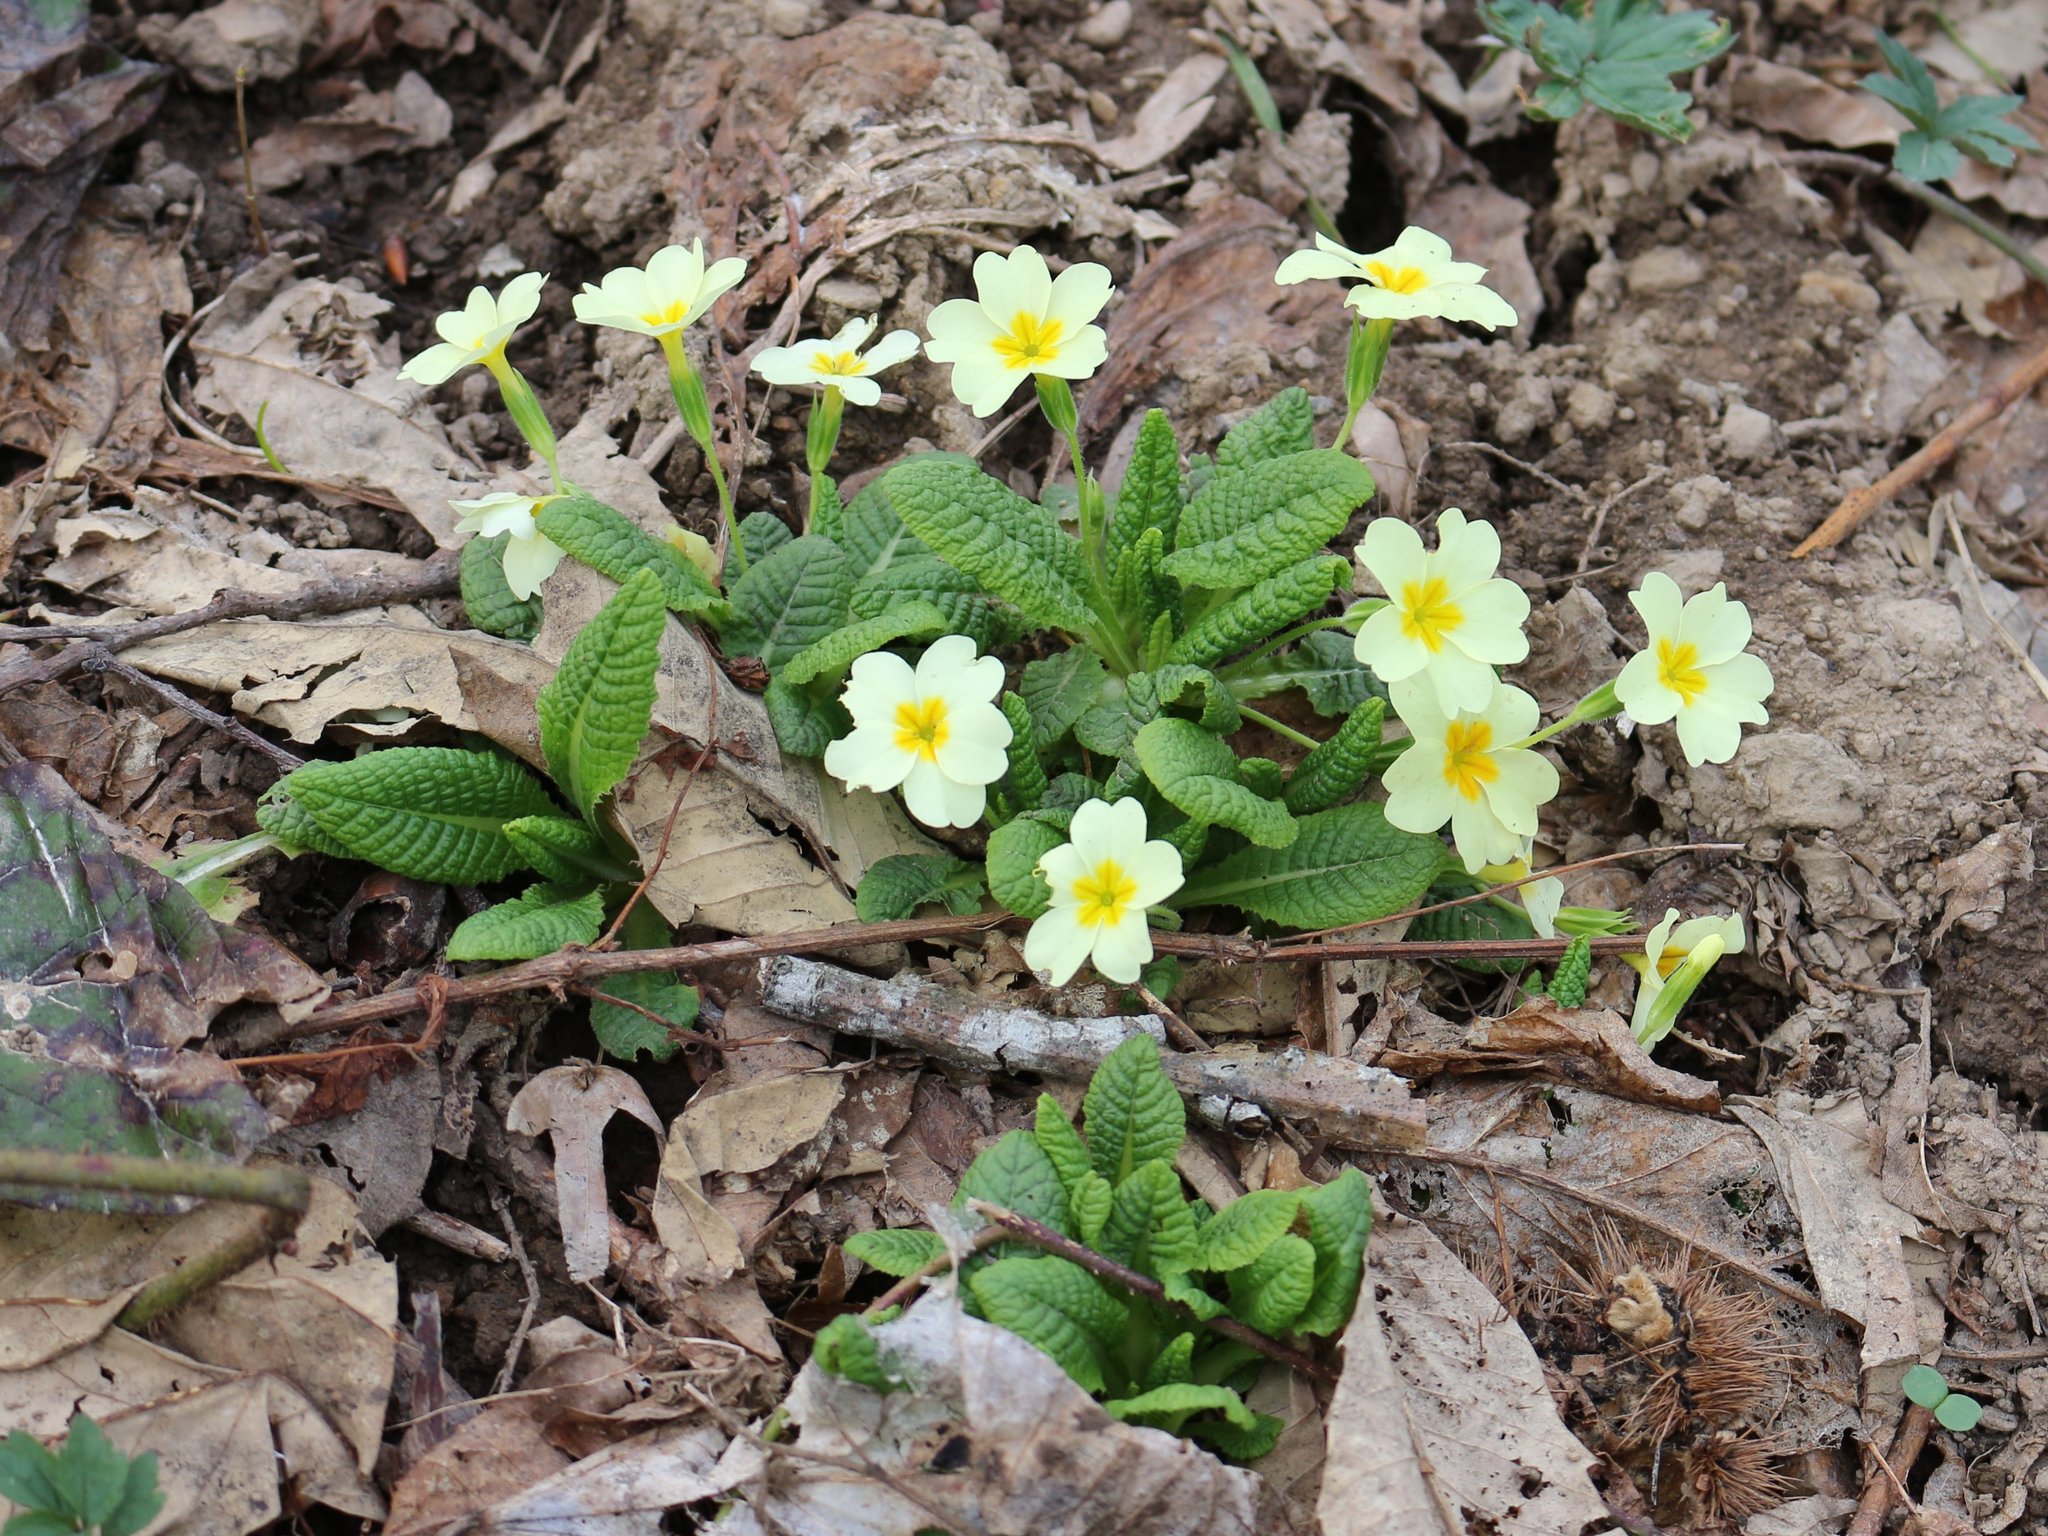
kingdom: Plantae
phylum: Tracheophyta
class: Magnoliopsida
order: Ericales
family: Primulaceae
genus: Primula
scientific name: Primula vulgaris
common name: Primrose
